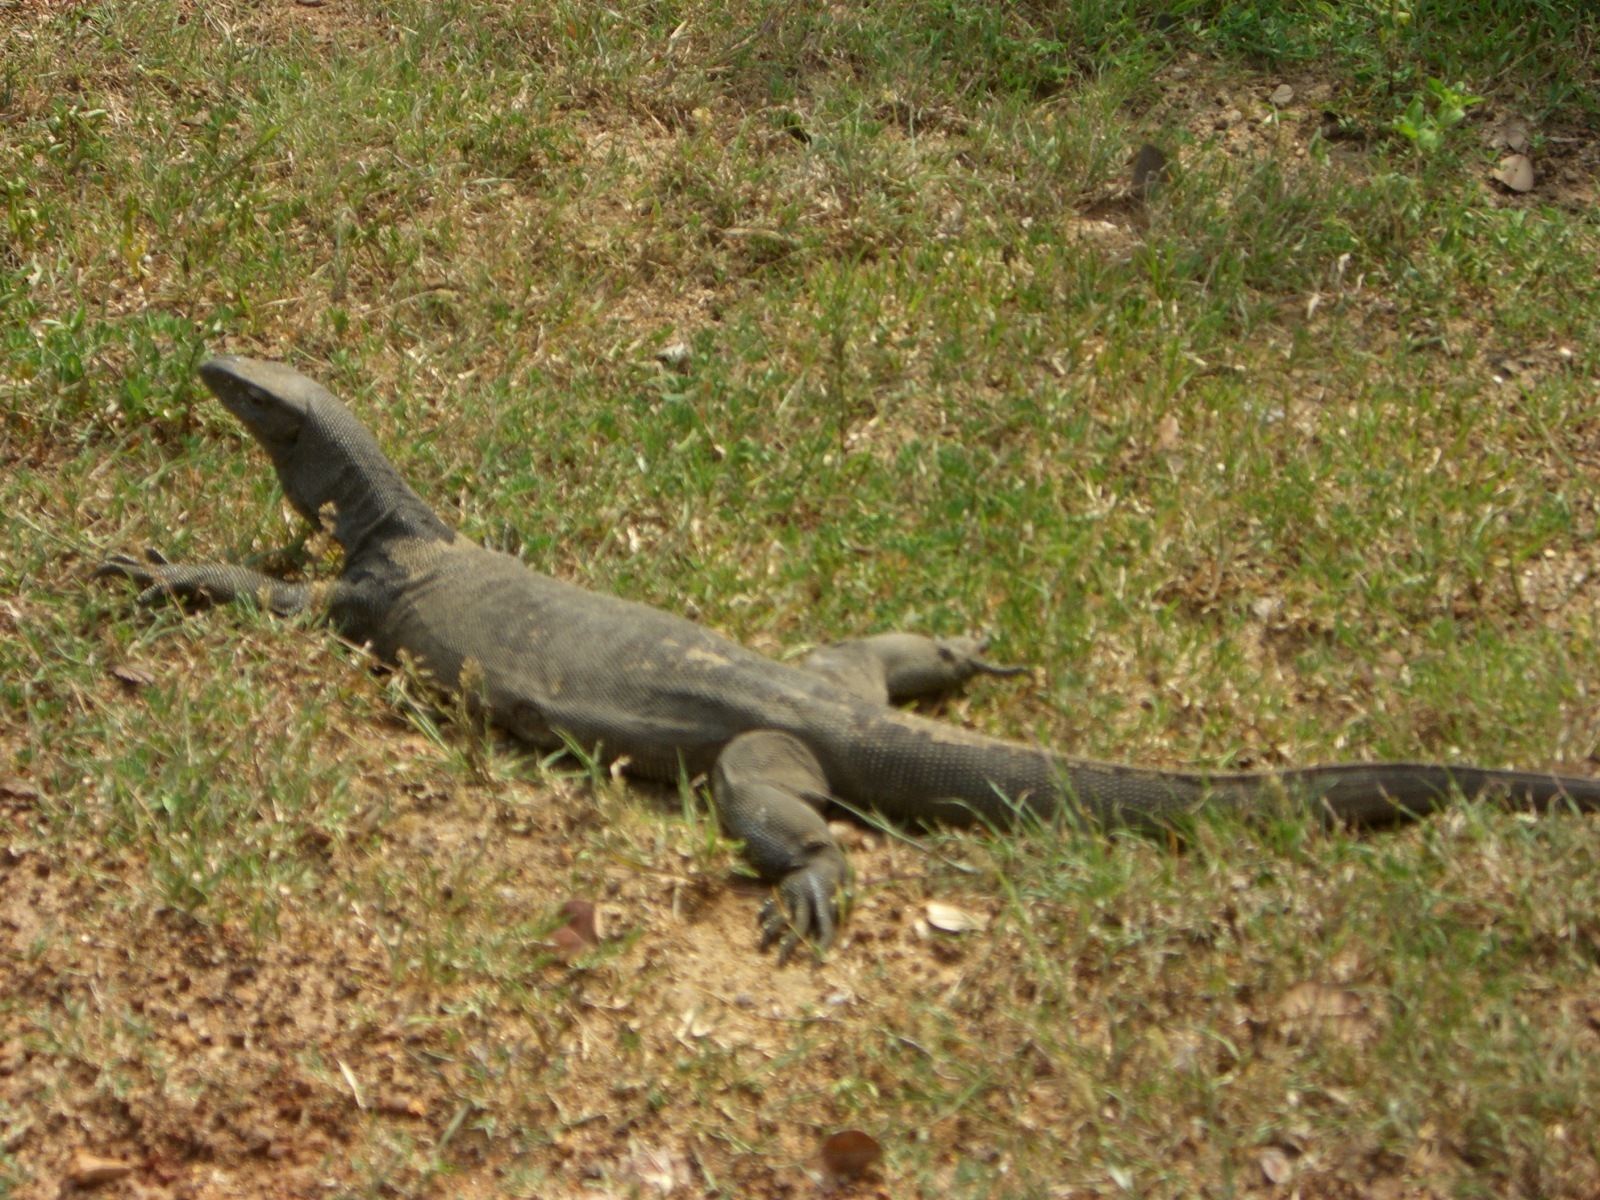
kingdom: Animalia
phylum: Chordata
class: Squamata
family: Varanidae
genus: Varanus
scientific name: Varanus bengalensis
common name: Bengal monitor
